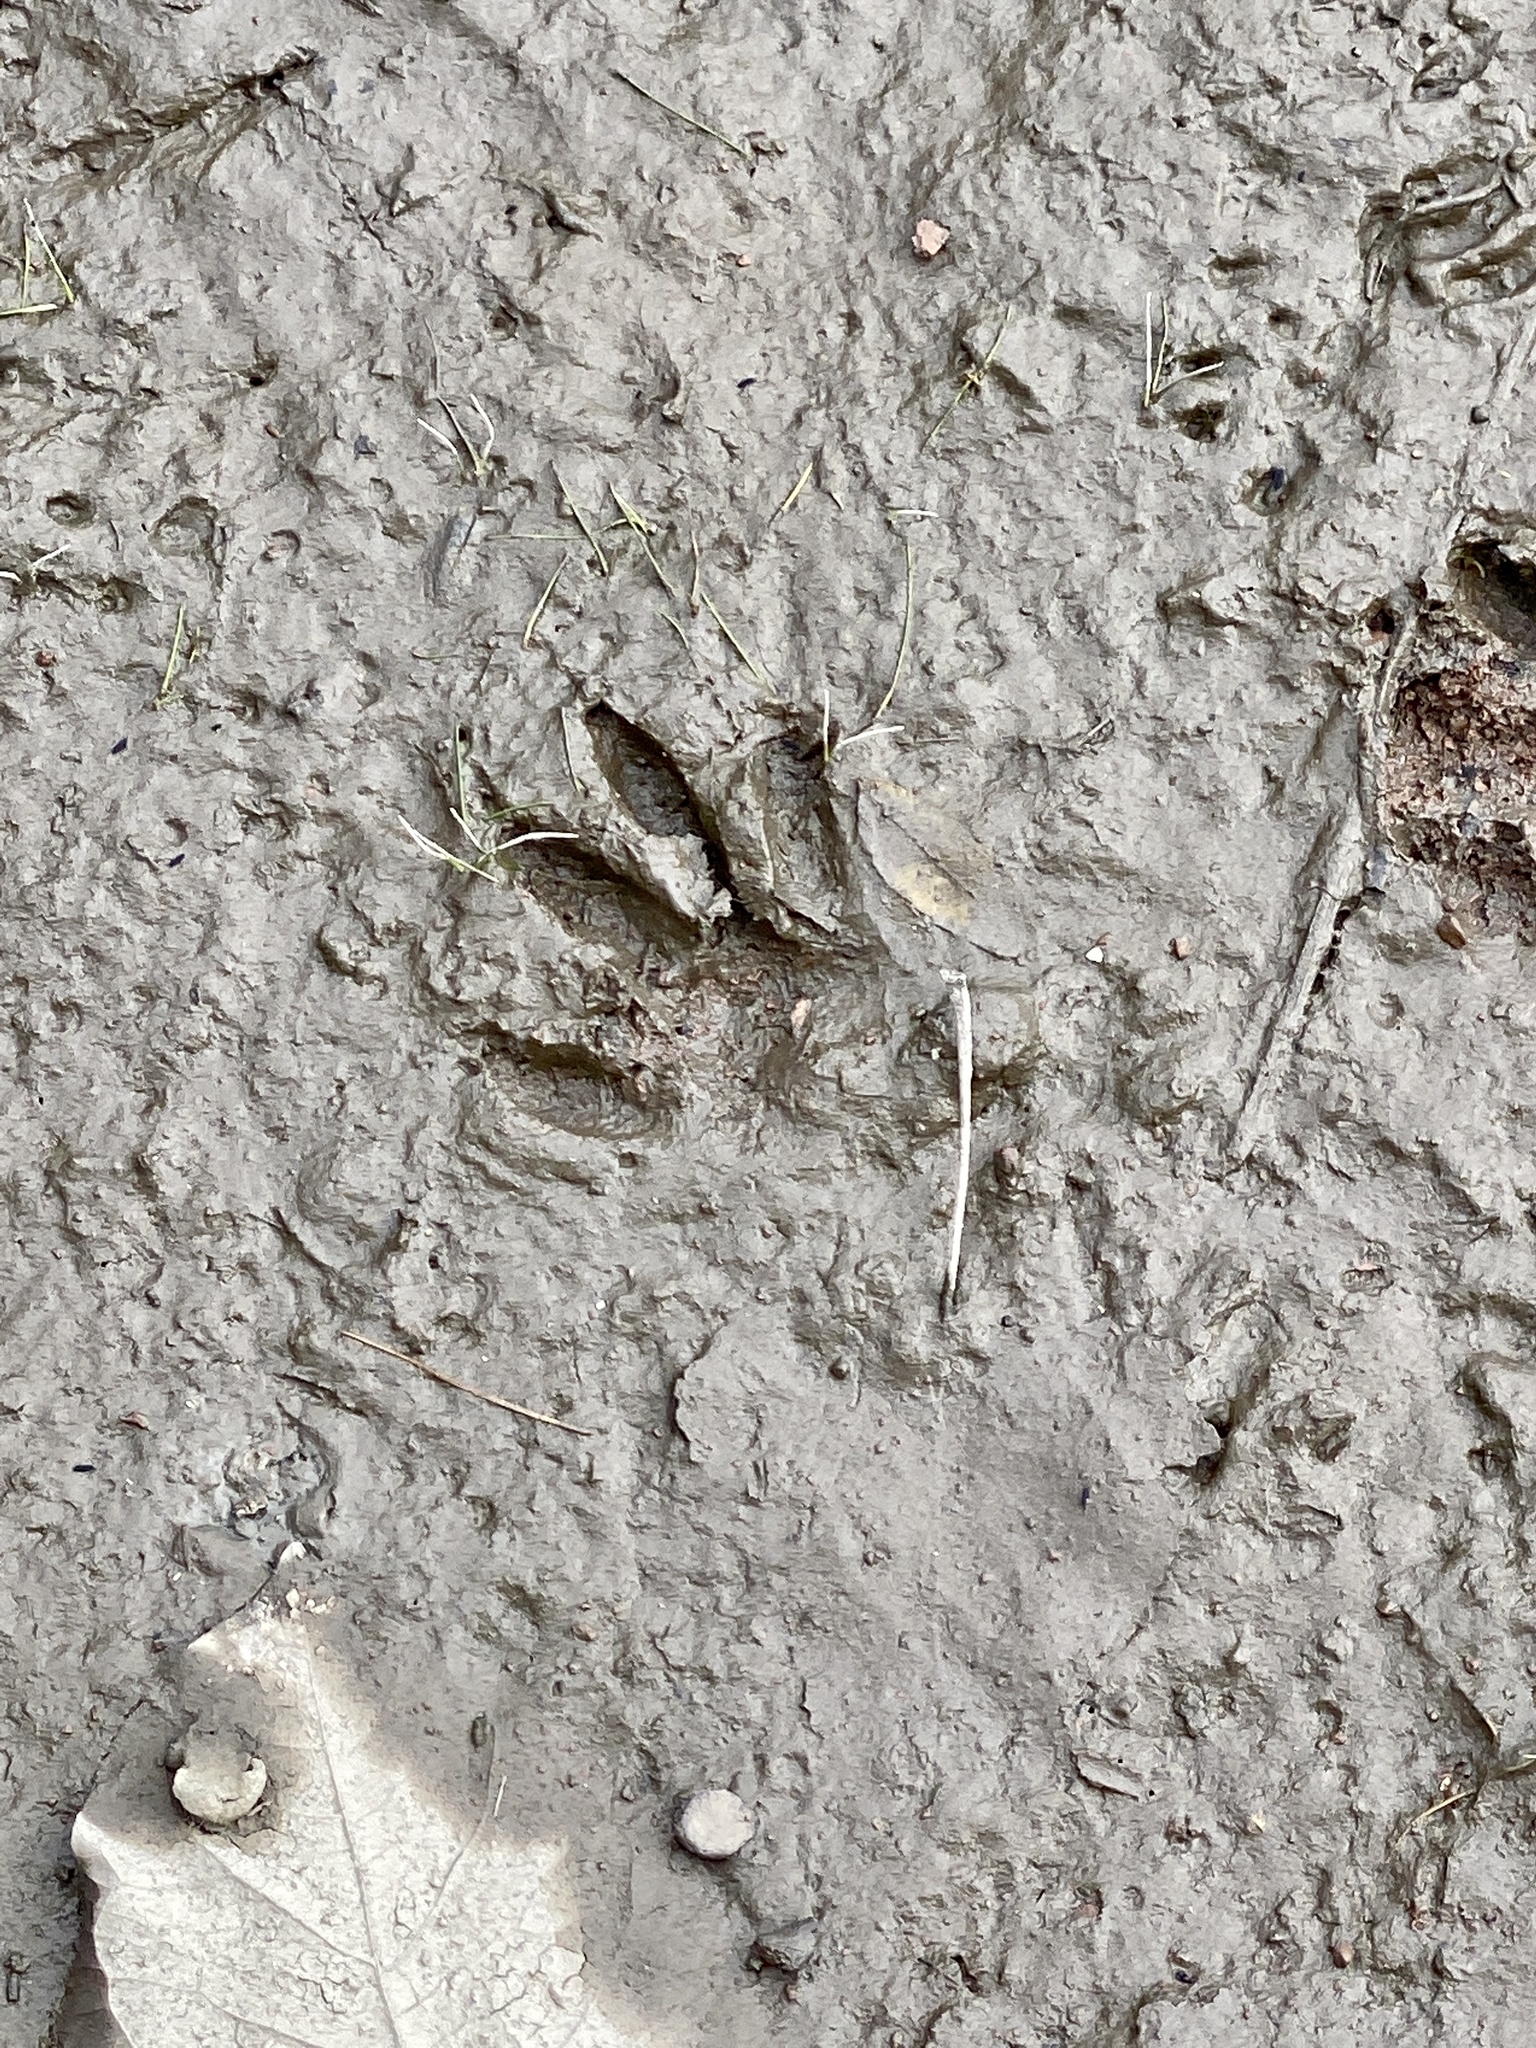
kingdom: Animalia
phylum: Chordata
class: Mammalia
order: Carnivora
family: Procyonidae
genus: Procyon
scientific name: Procyon lotor
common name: Raccoon
